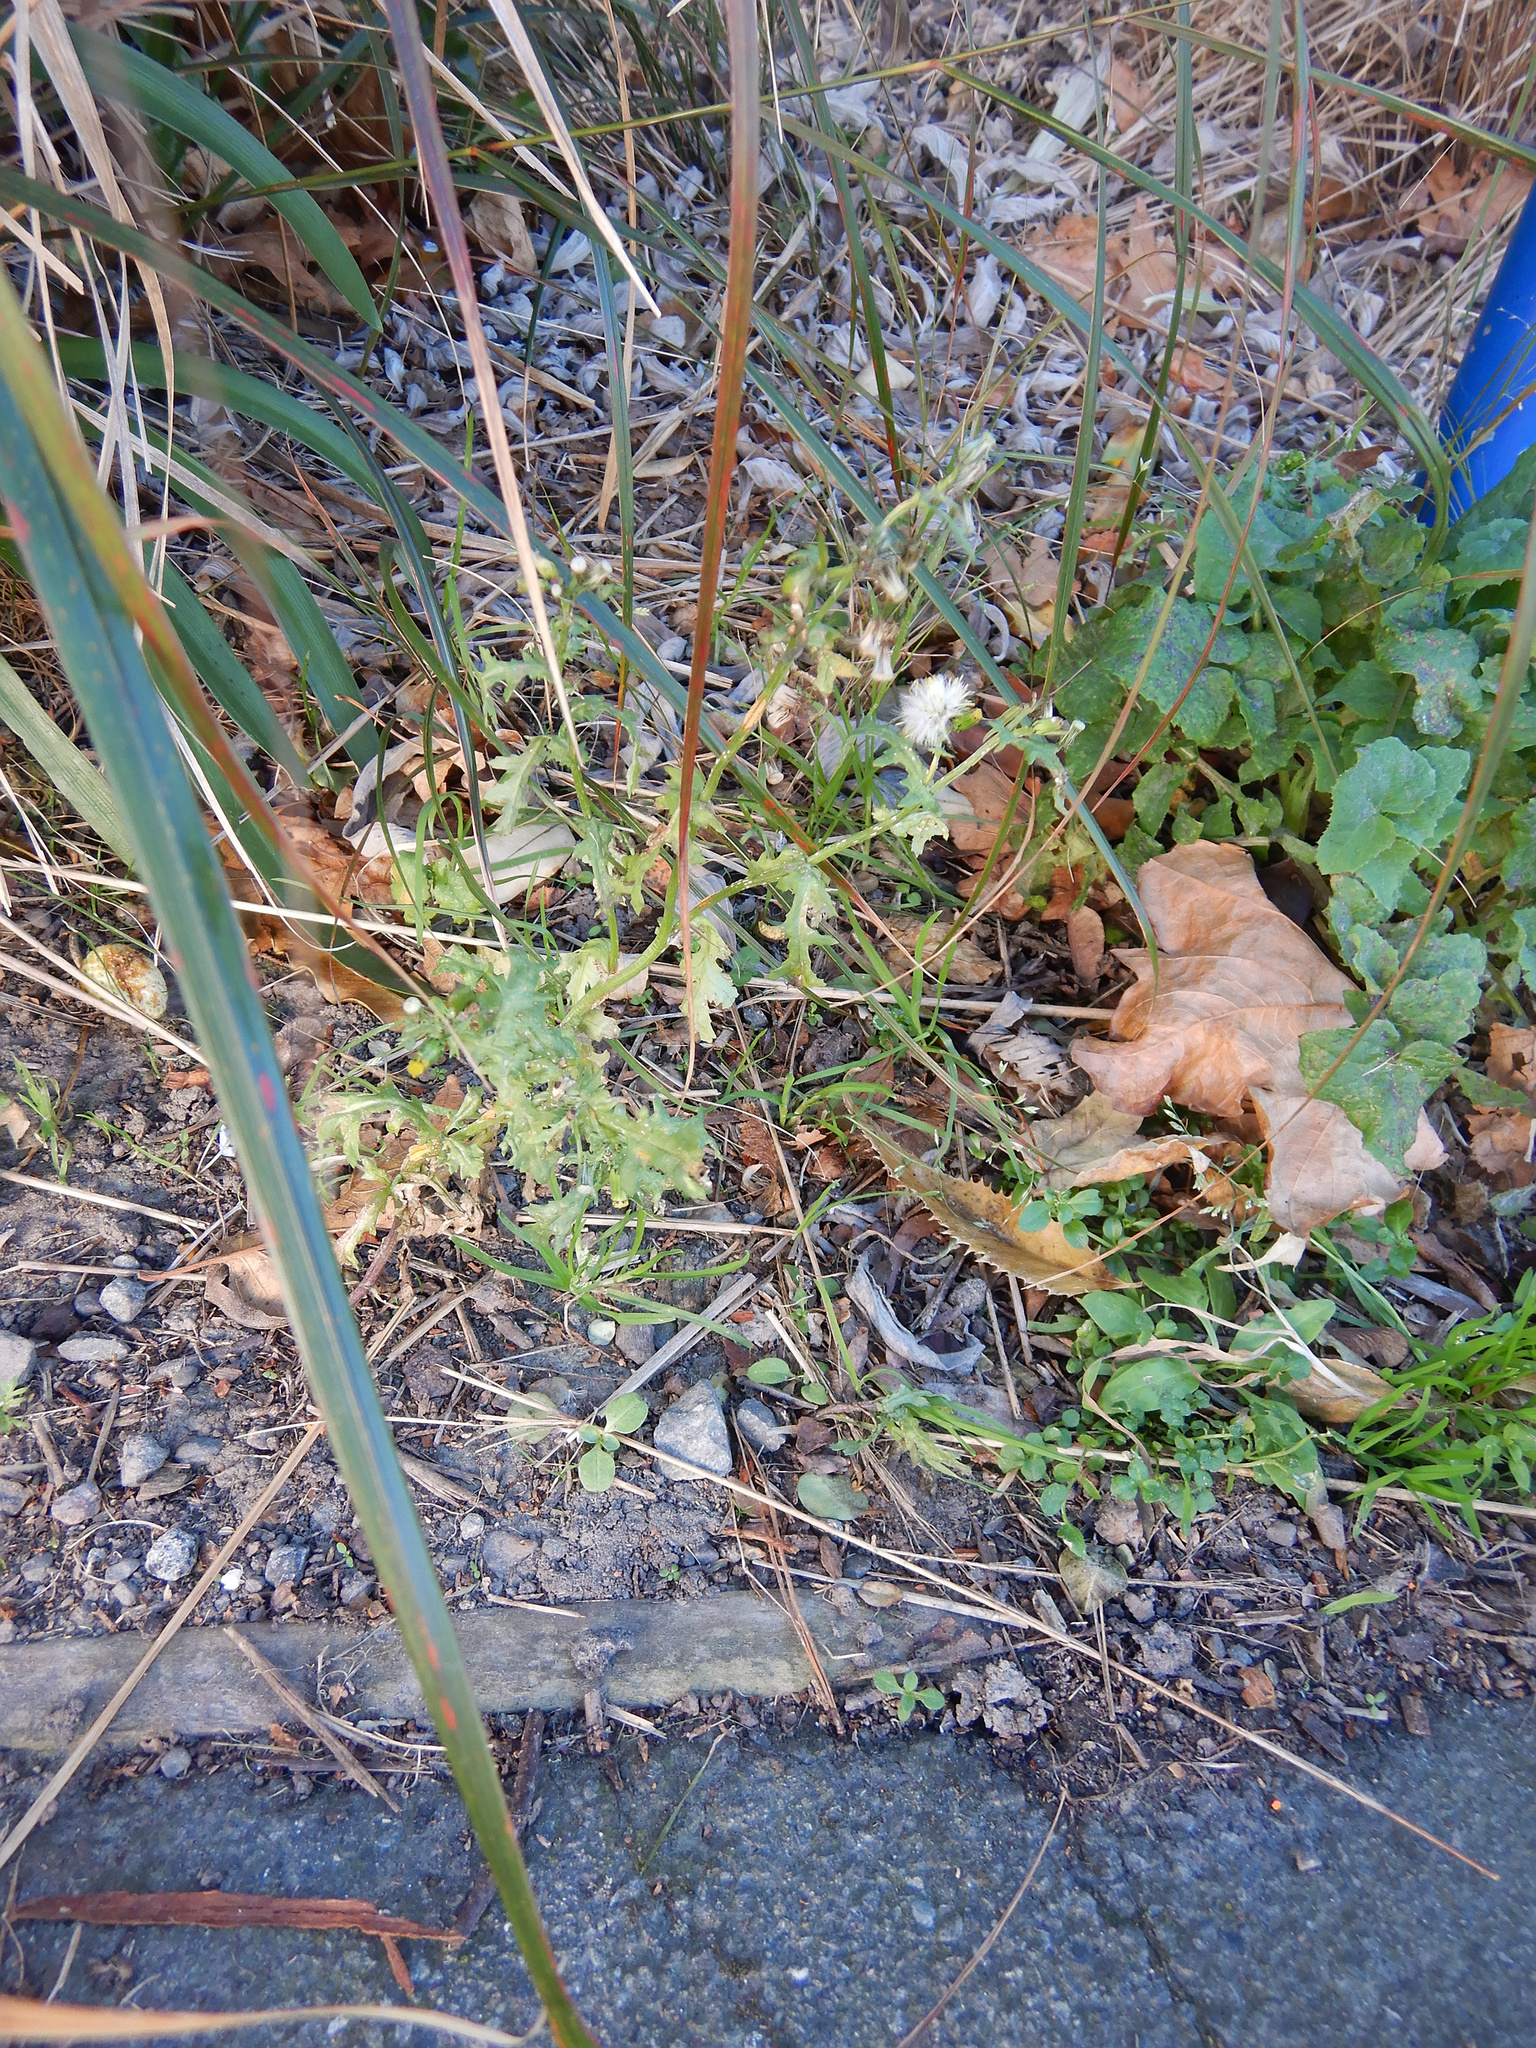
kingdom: Plantae
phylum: Tracheophyta
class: Magnoliopsida
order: Asterales
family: Asteraceae
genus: Senecio
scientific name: Senecio vulgaris
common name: Old-man-in-the-spring
